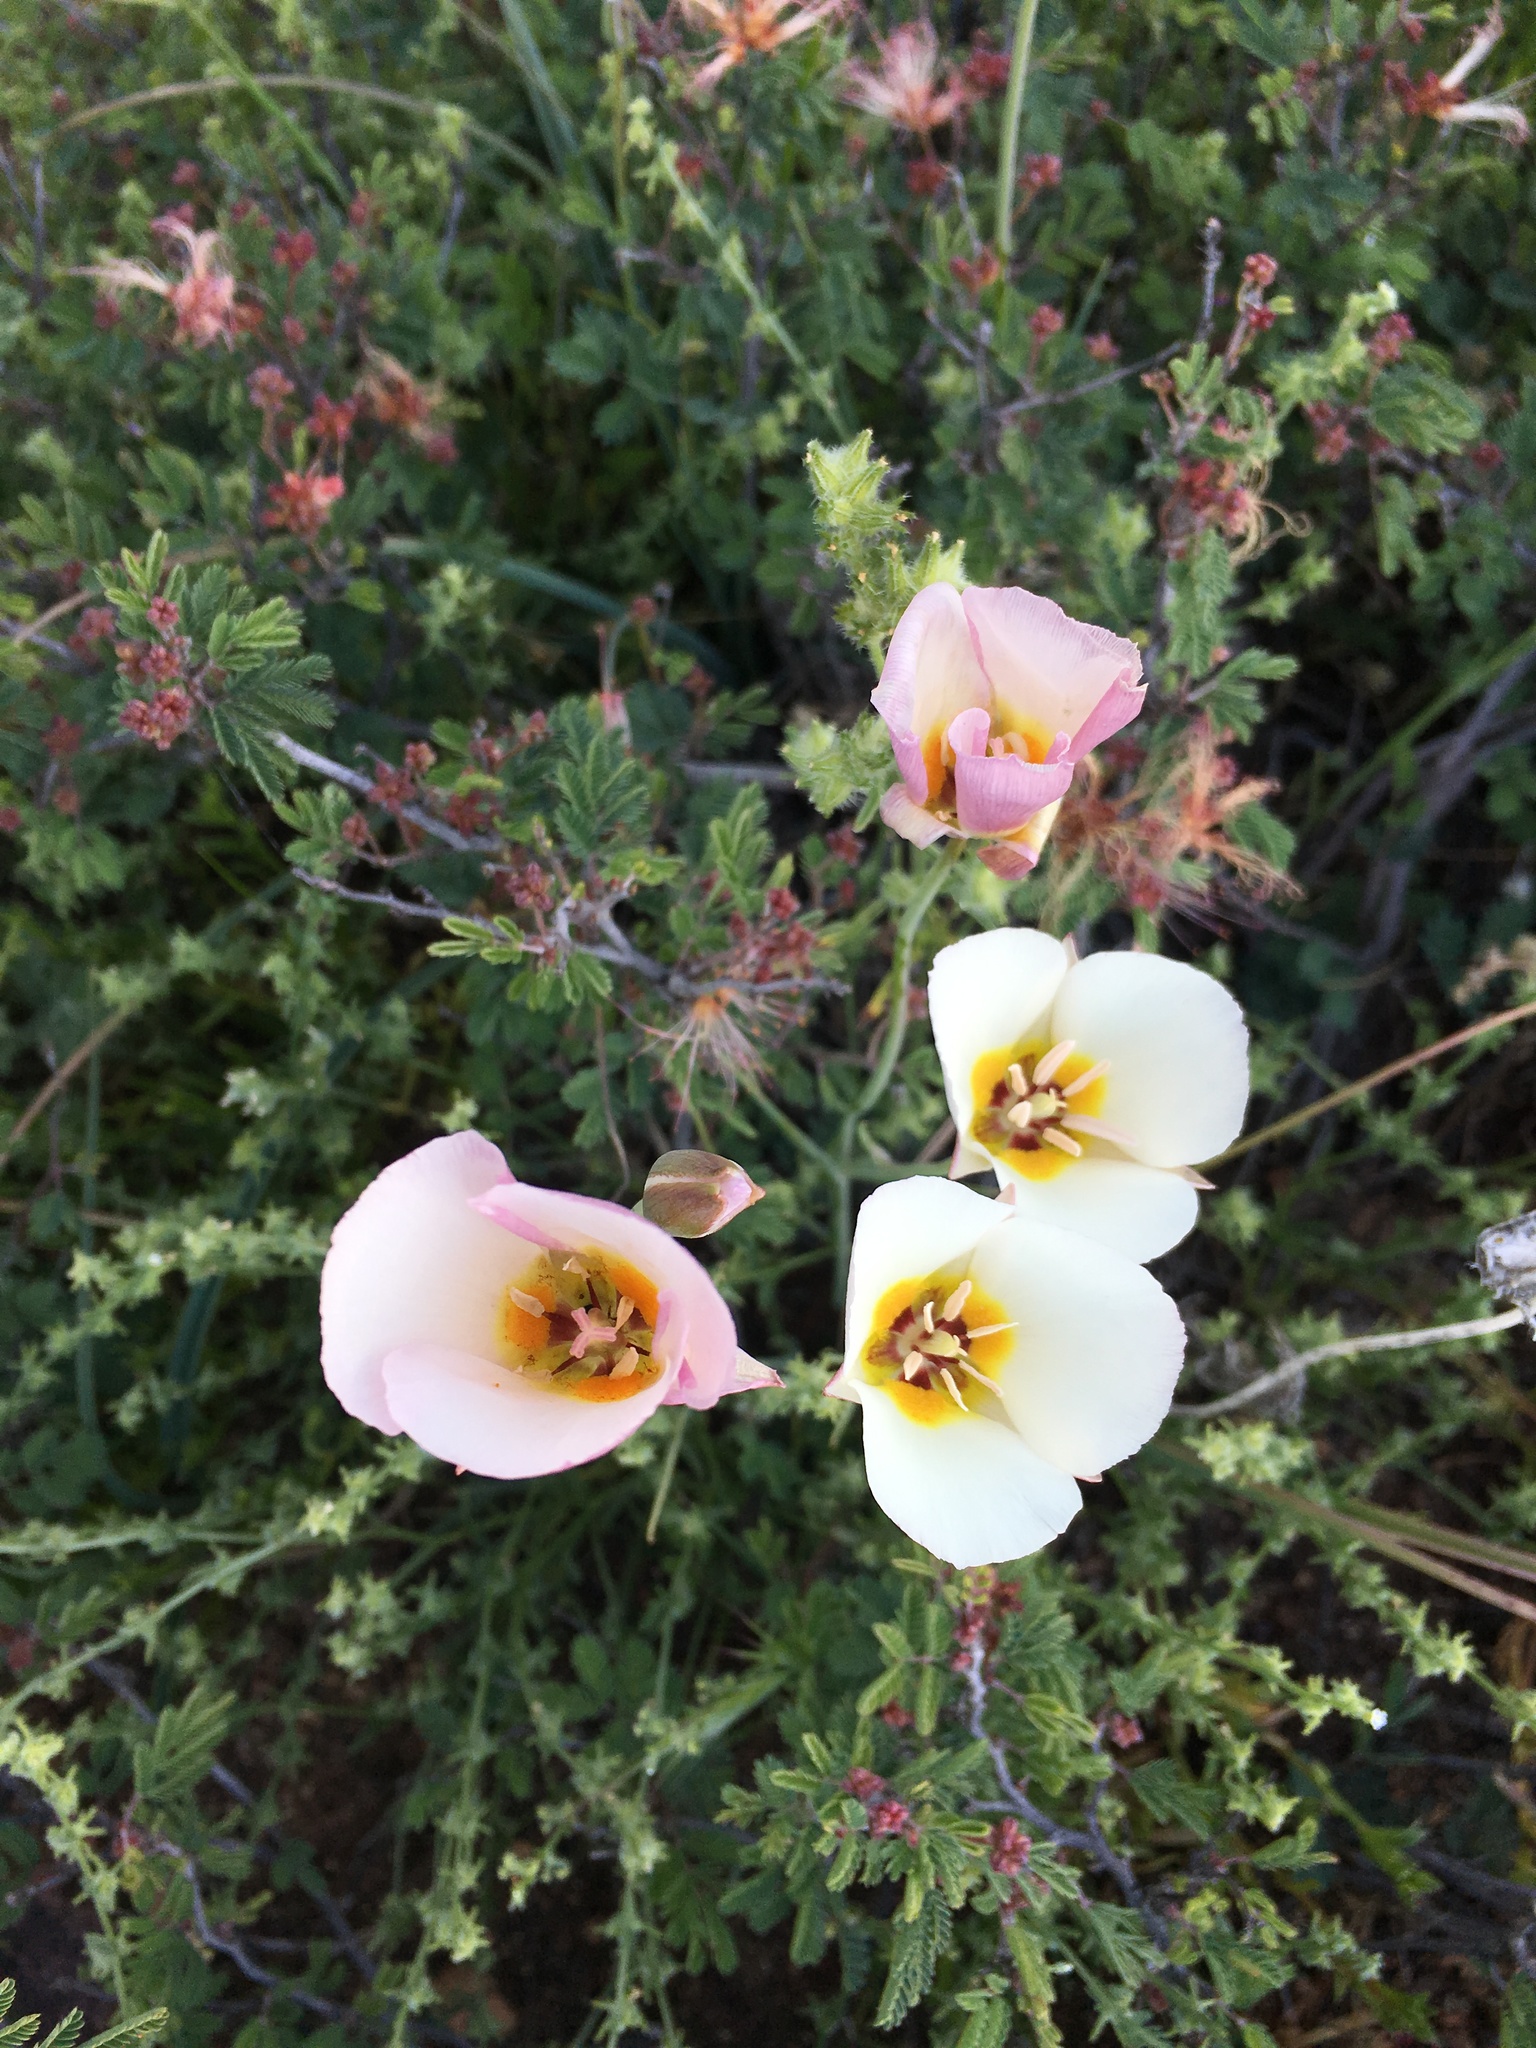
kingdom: Plantae
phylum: Tracheophyta
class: Liliopsida
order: Liliales
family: Liliaceae
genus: Calochortus
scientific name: Calochortus flexuosus
